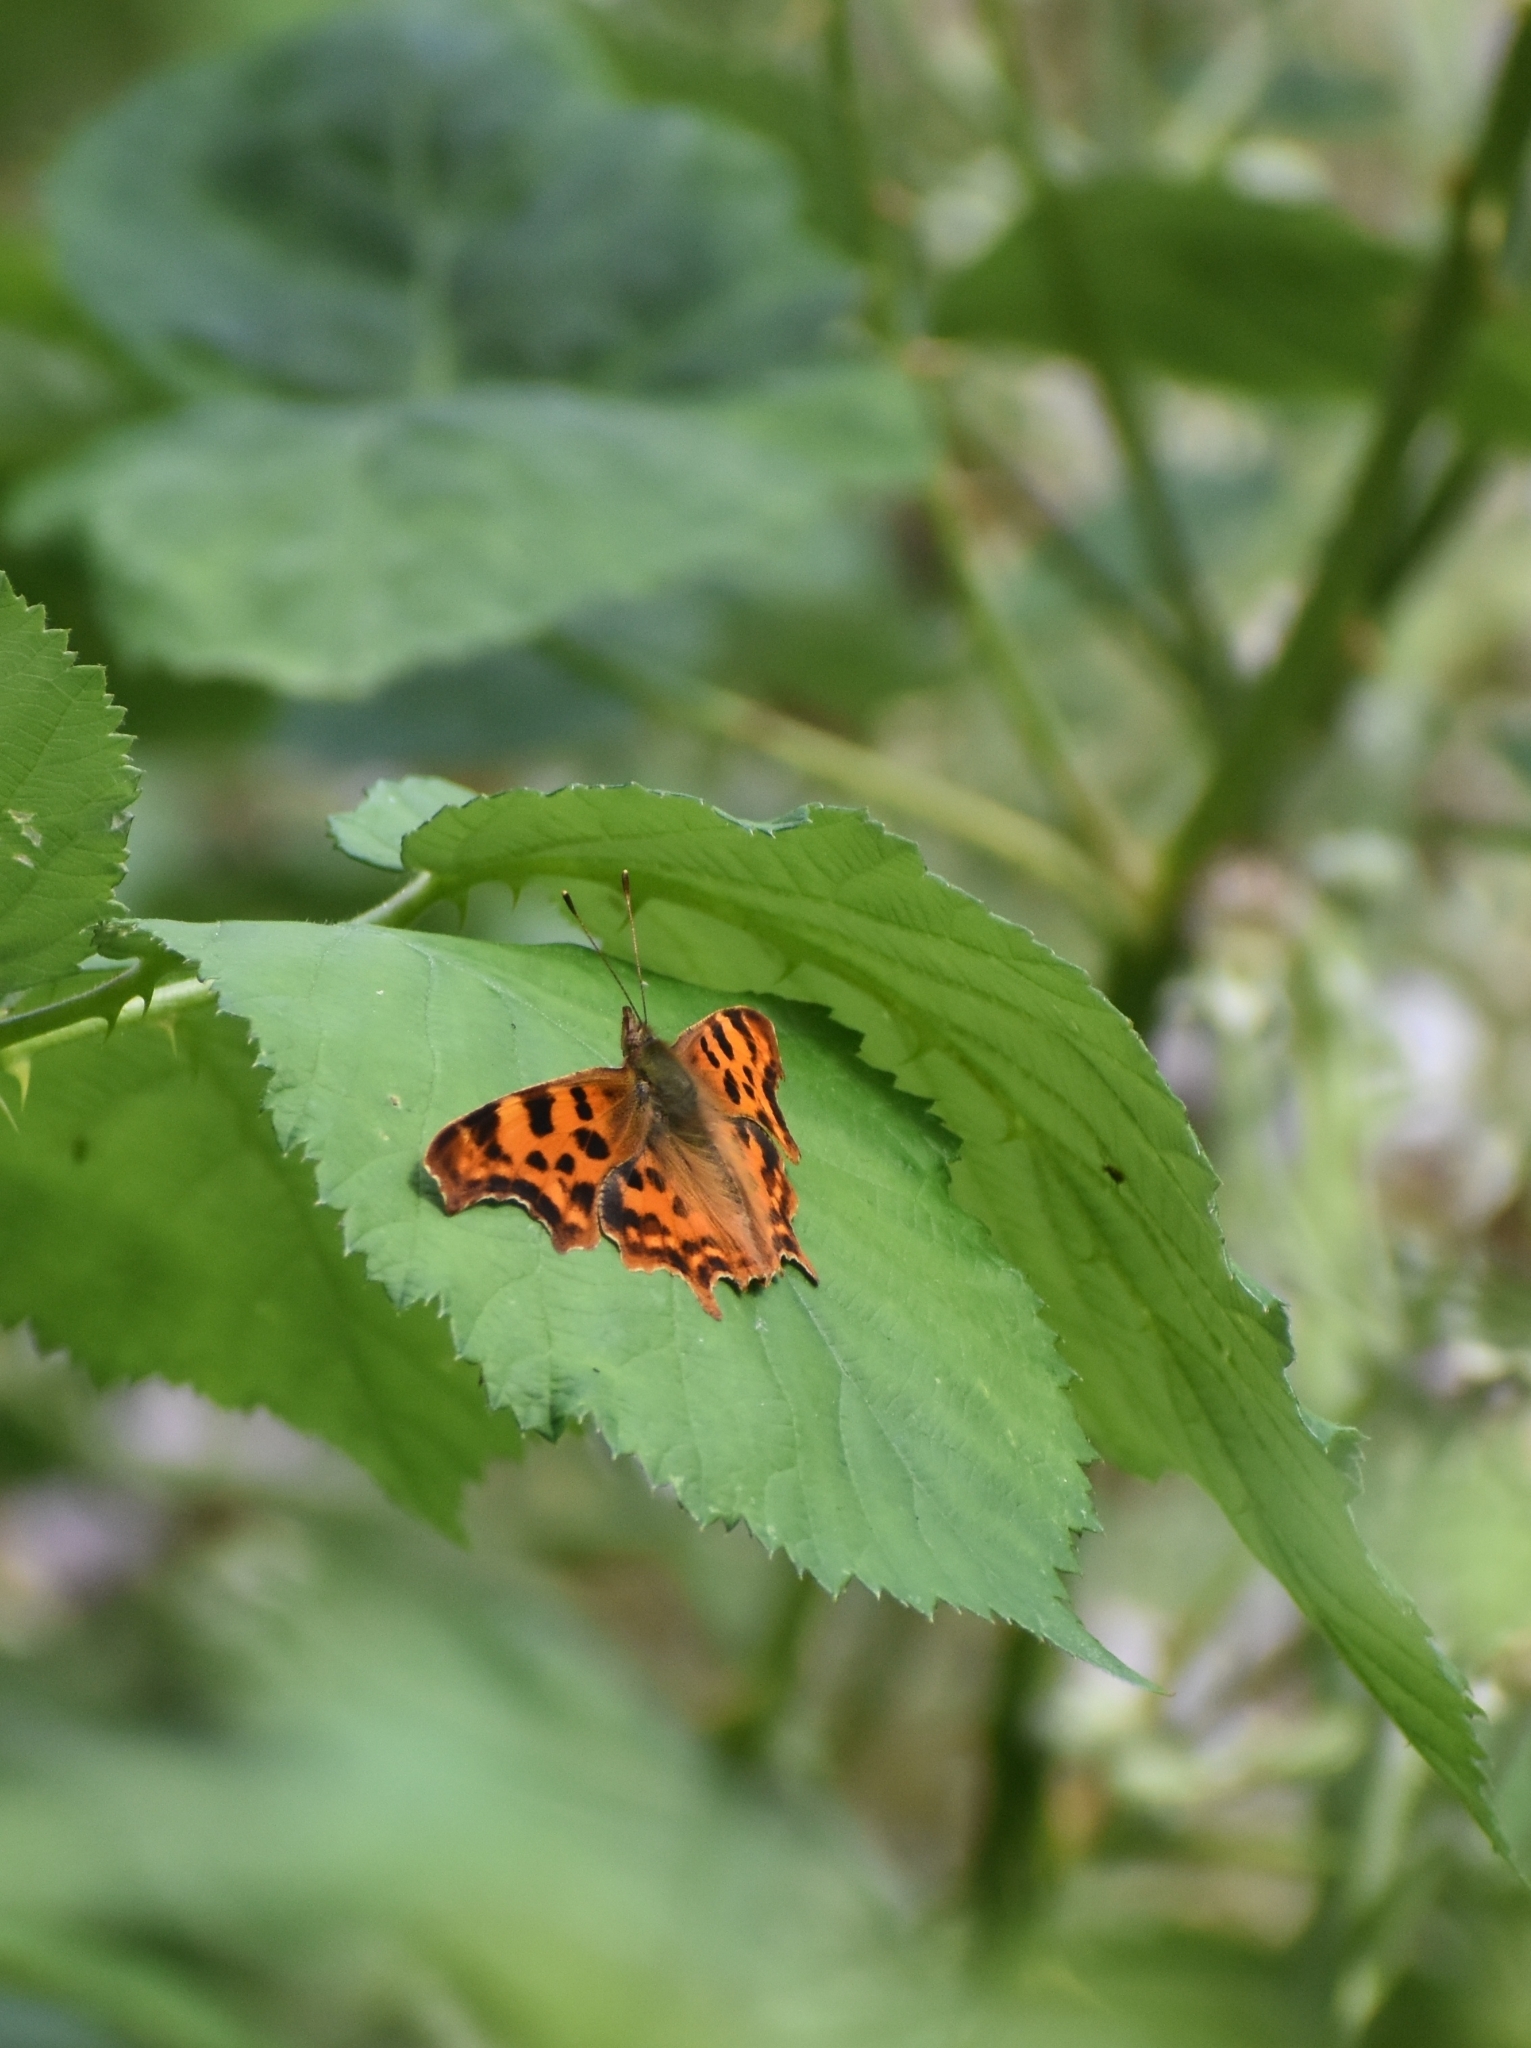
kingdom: Animalia
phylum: Arthropoda
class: Insecta
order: Lepidoptera
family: Nymphalidae
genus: Polygonia
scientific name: Polygonia c-album
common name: Comma
